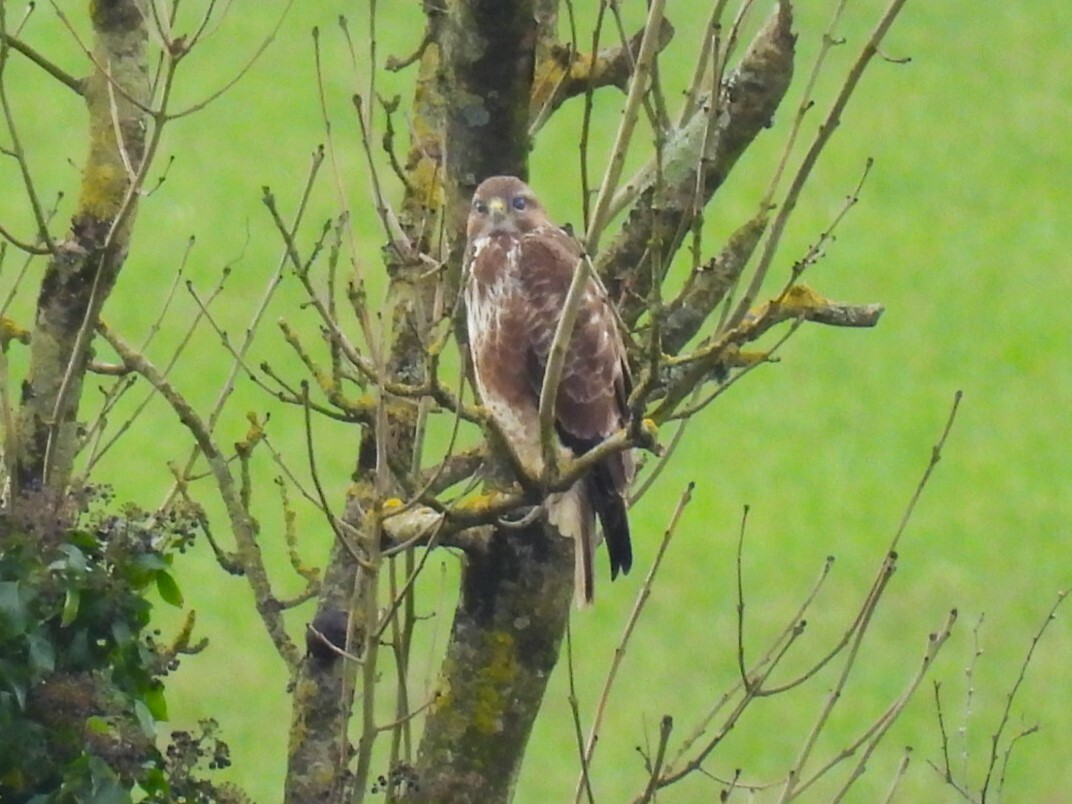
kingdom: Animalia
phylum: Chordata
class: Aves
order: Accipitriformes
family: Accipitridae
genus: Buteo
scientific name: Buteo buteo
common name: Common buzzard
